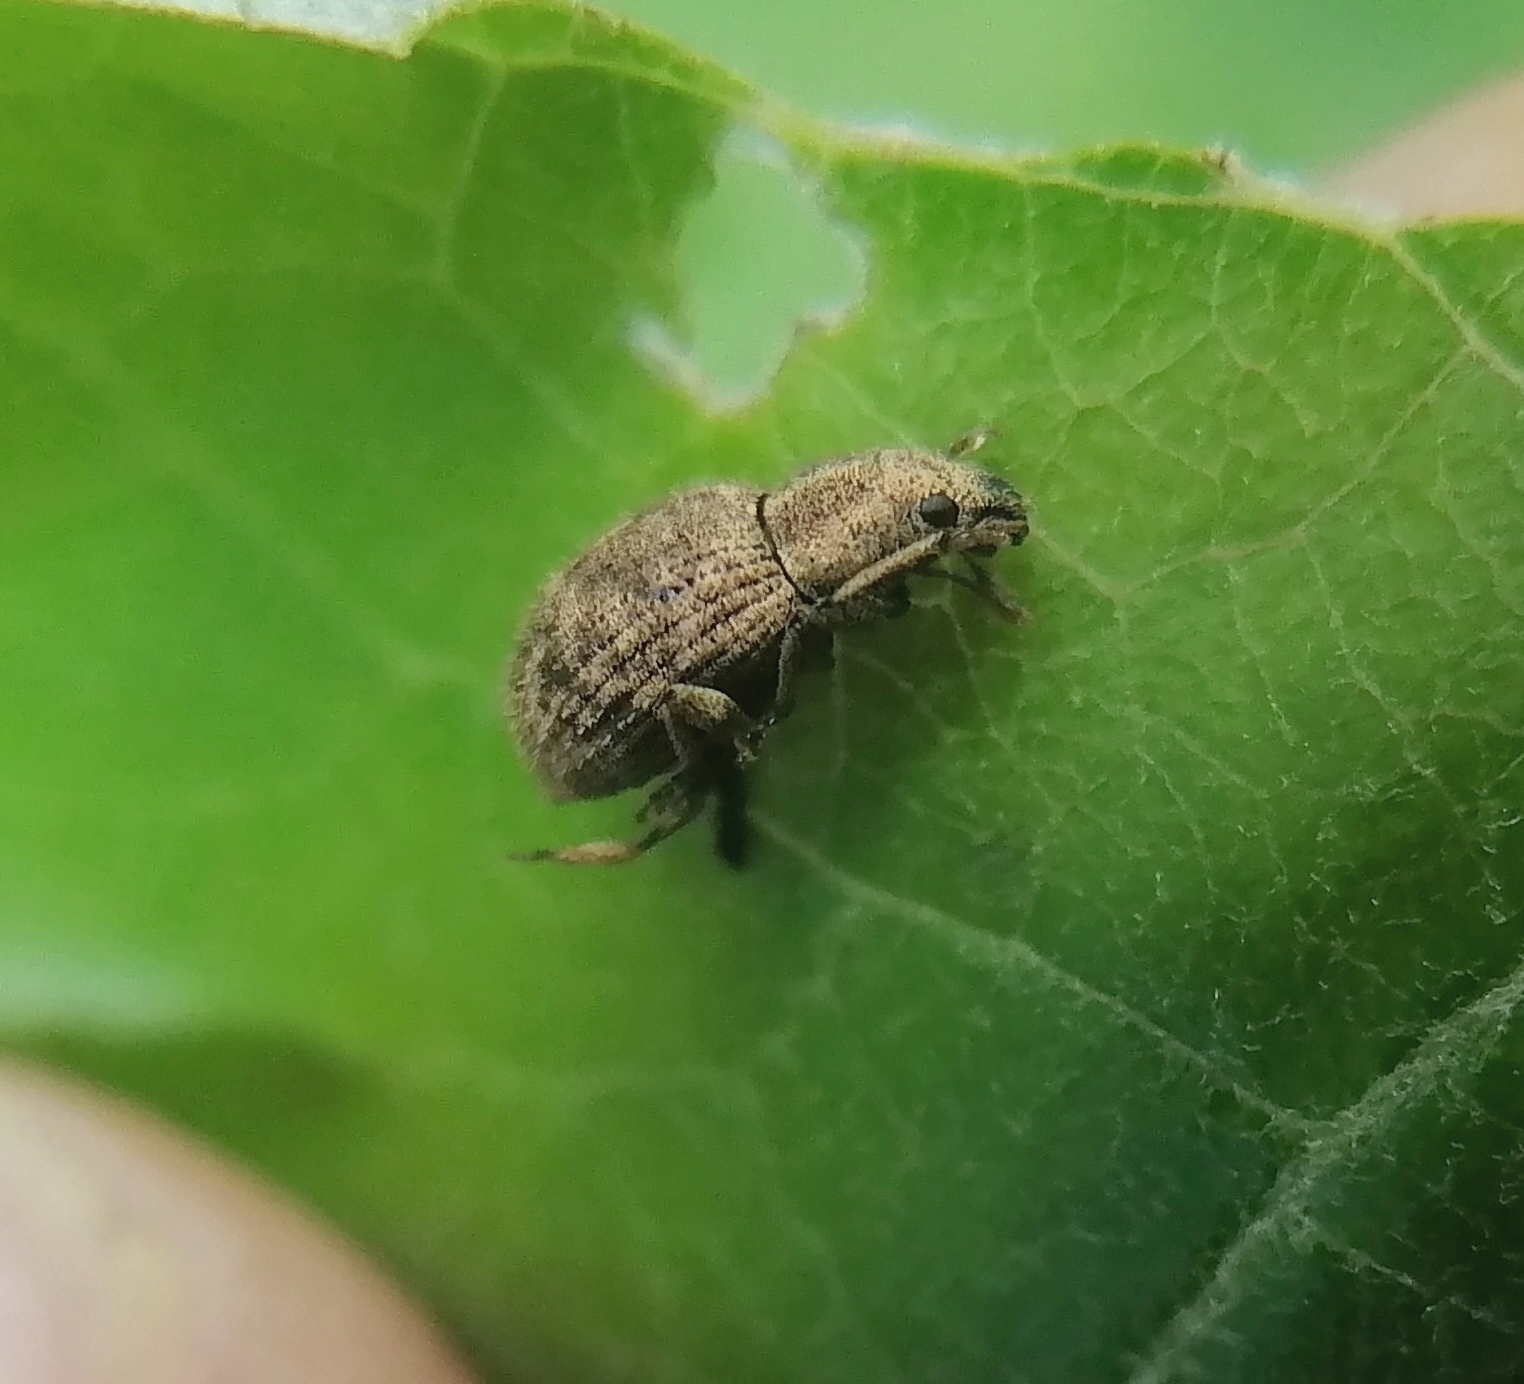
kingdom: Animalia
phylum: Arthropoda
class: Insecta
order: Coleoptera
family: Curculionidae
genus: Sciaphilus
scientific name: Sciaphilus asperatus
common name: Weevil
